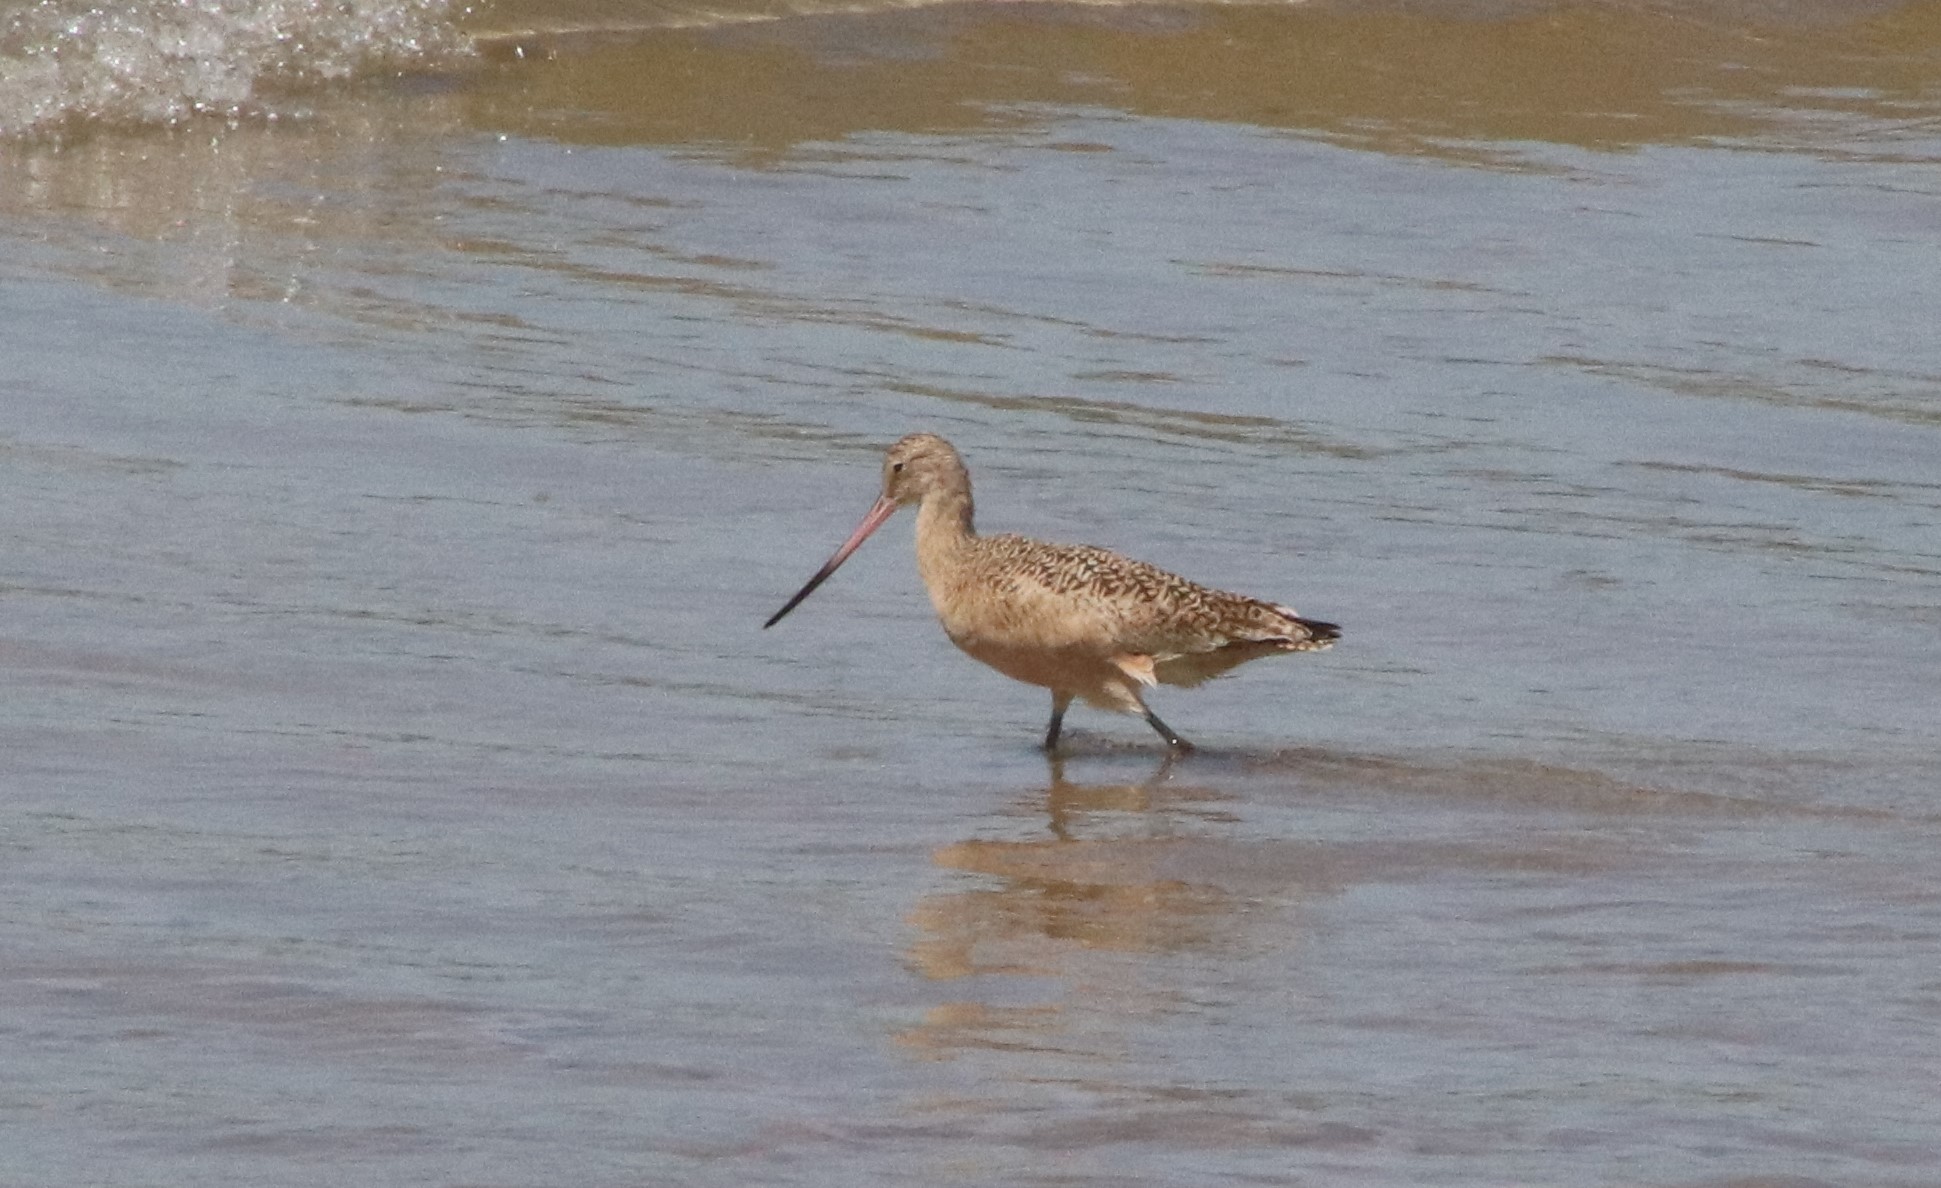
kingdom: Animalia
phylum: Chordata
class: Aves
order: Charadriiformes
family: Scolopacidae
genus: Limosa
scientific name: Limosa fedoa
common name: Marbled godwit
